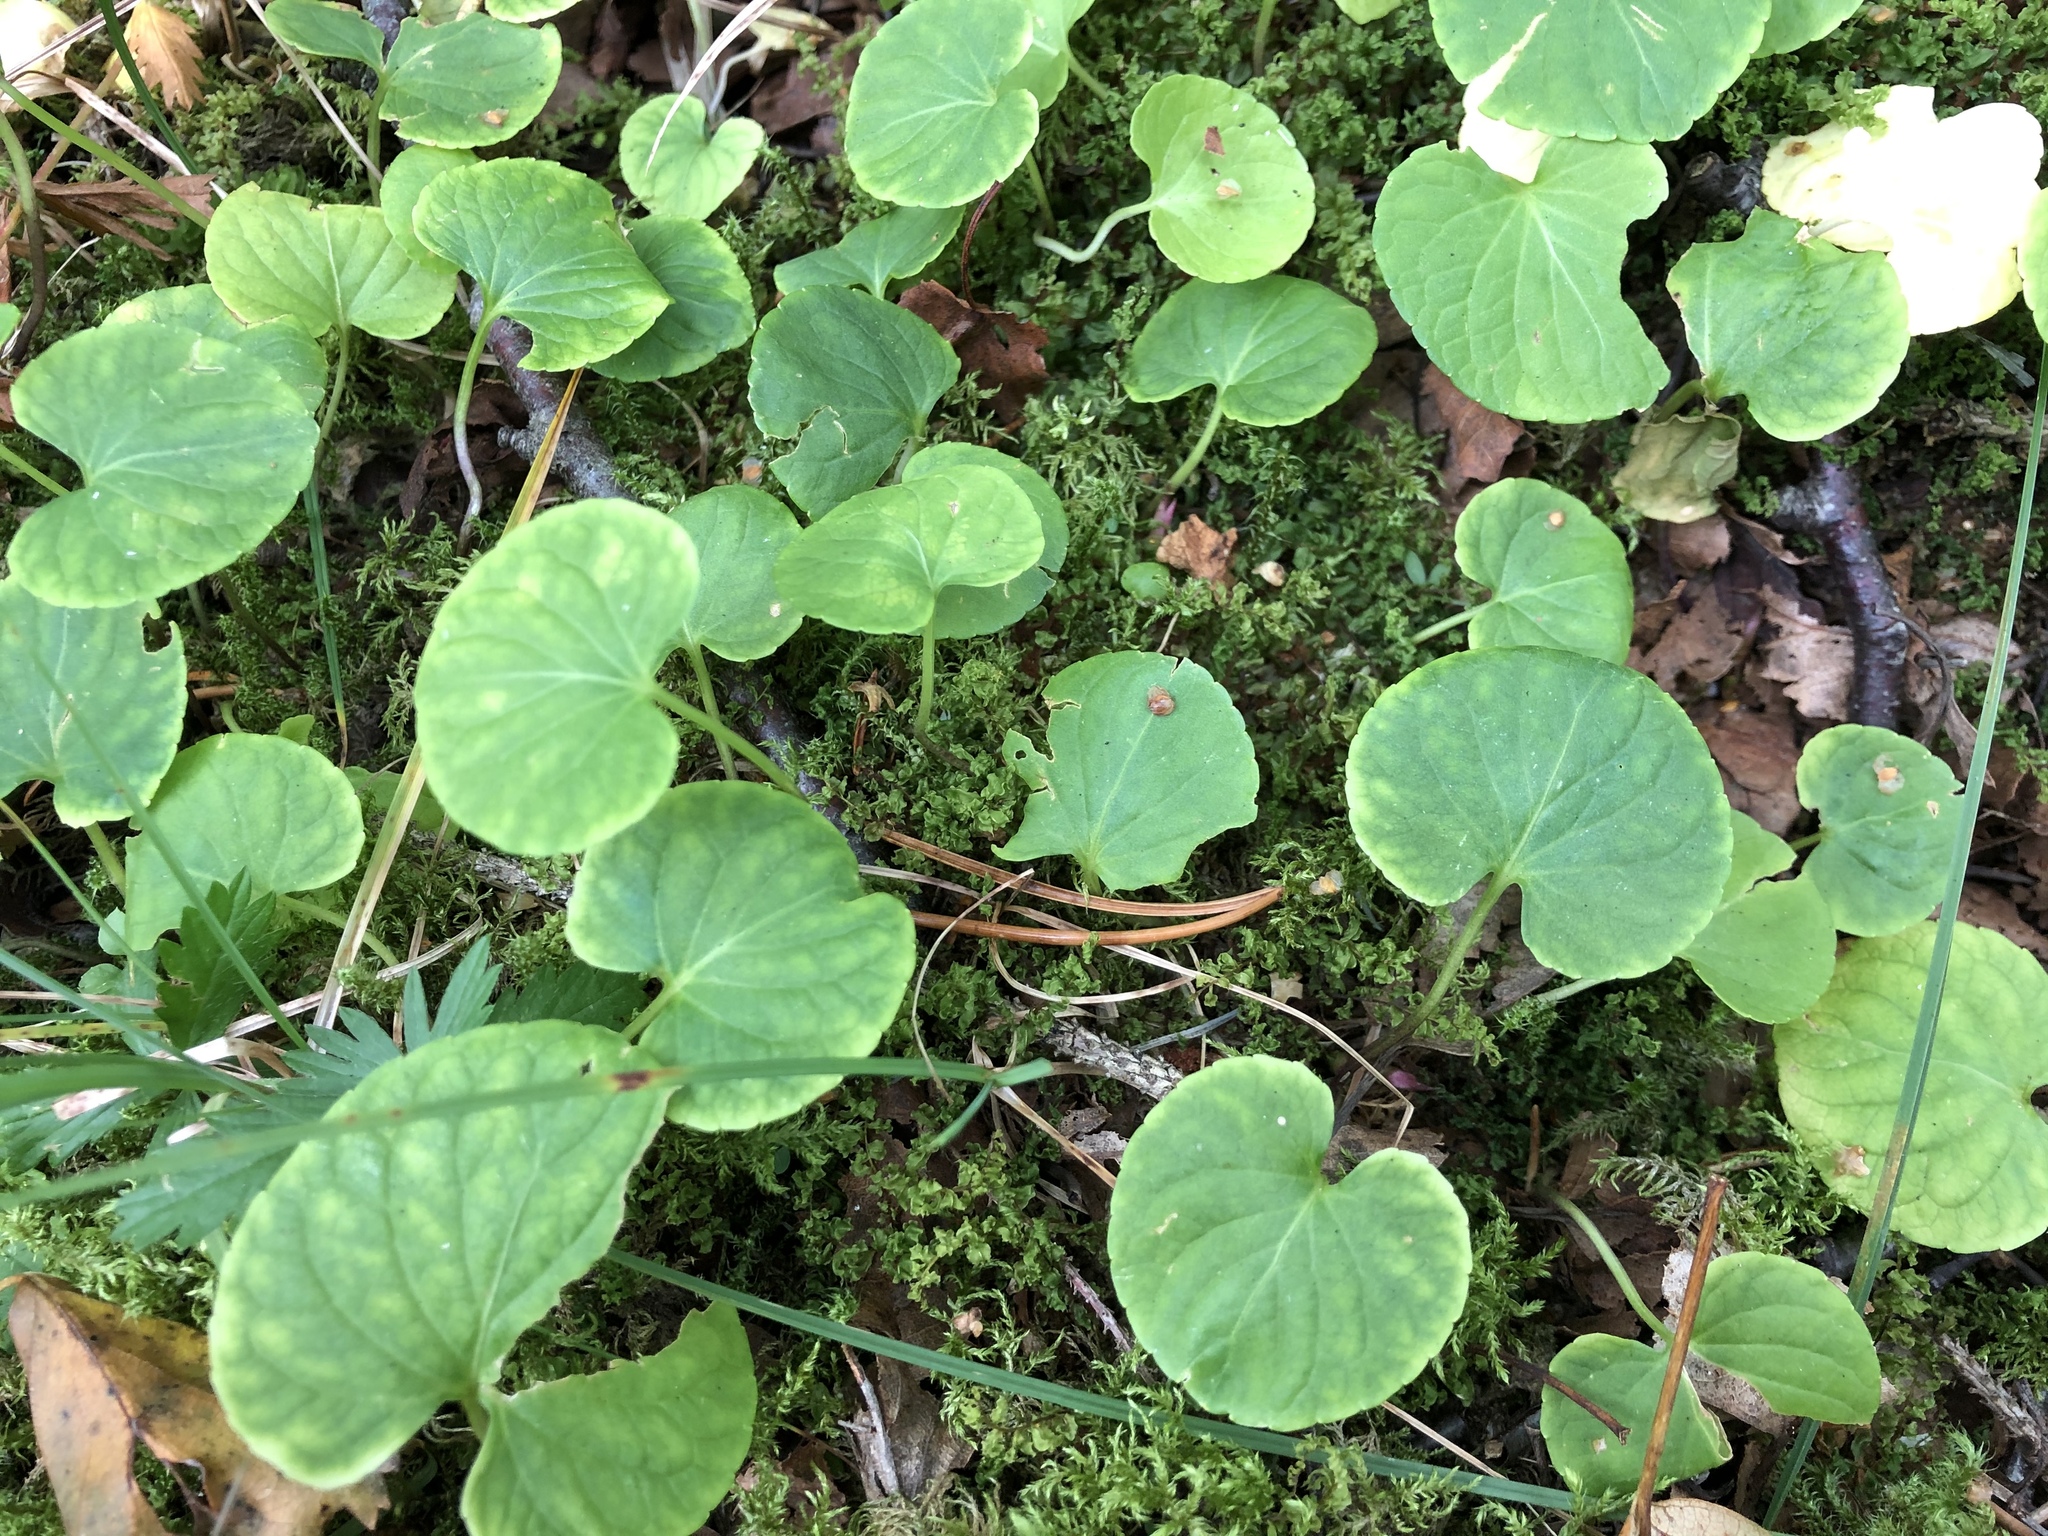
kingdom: Plantae
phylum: Tracheophyta
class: Magnoliopsida
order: Malpighiales
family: Violaceae
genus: Viola
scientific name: Viola palustris
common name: Marsh violet
